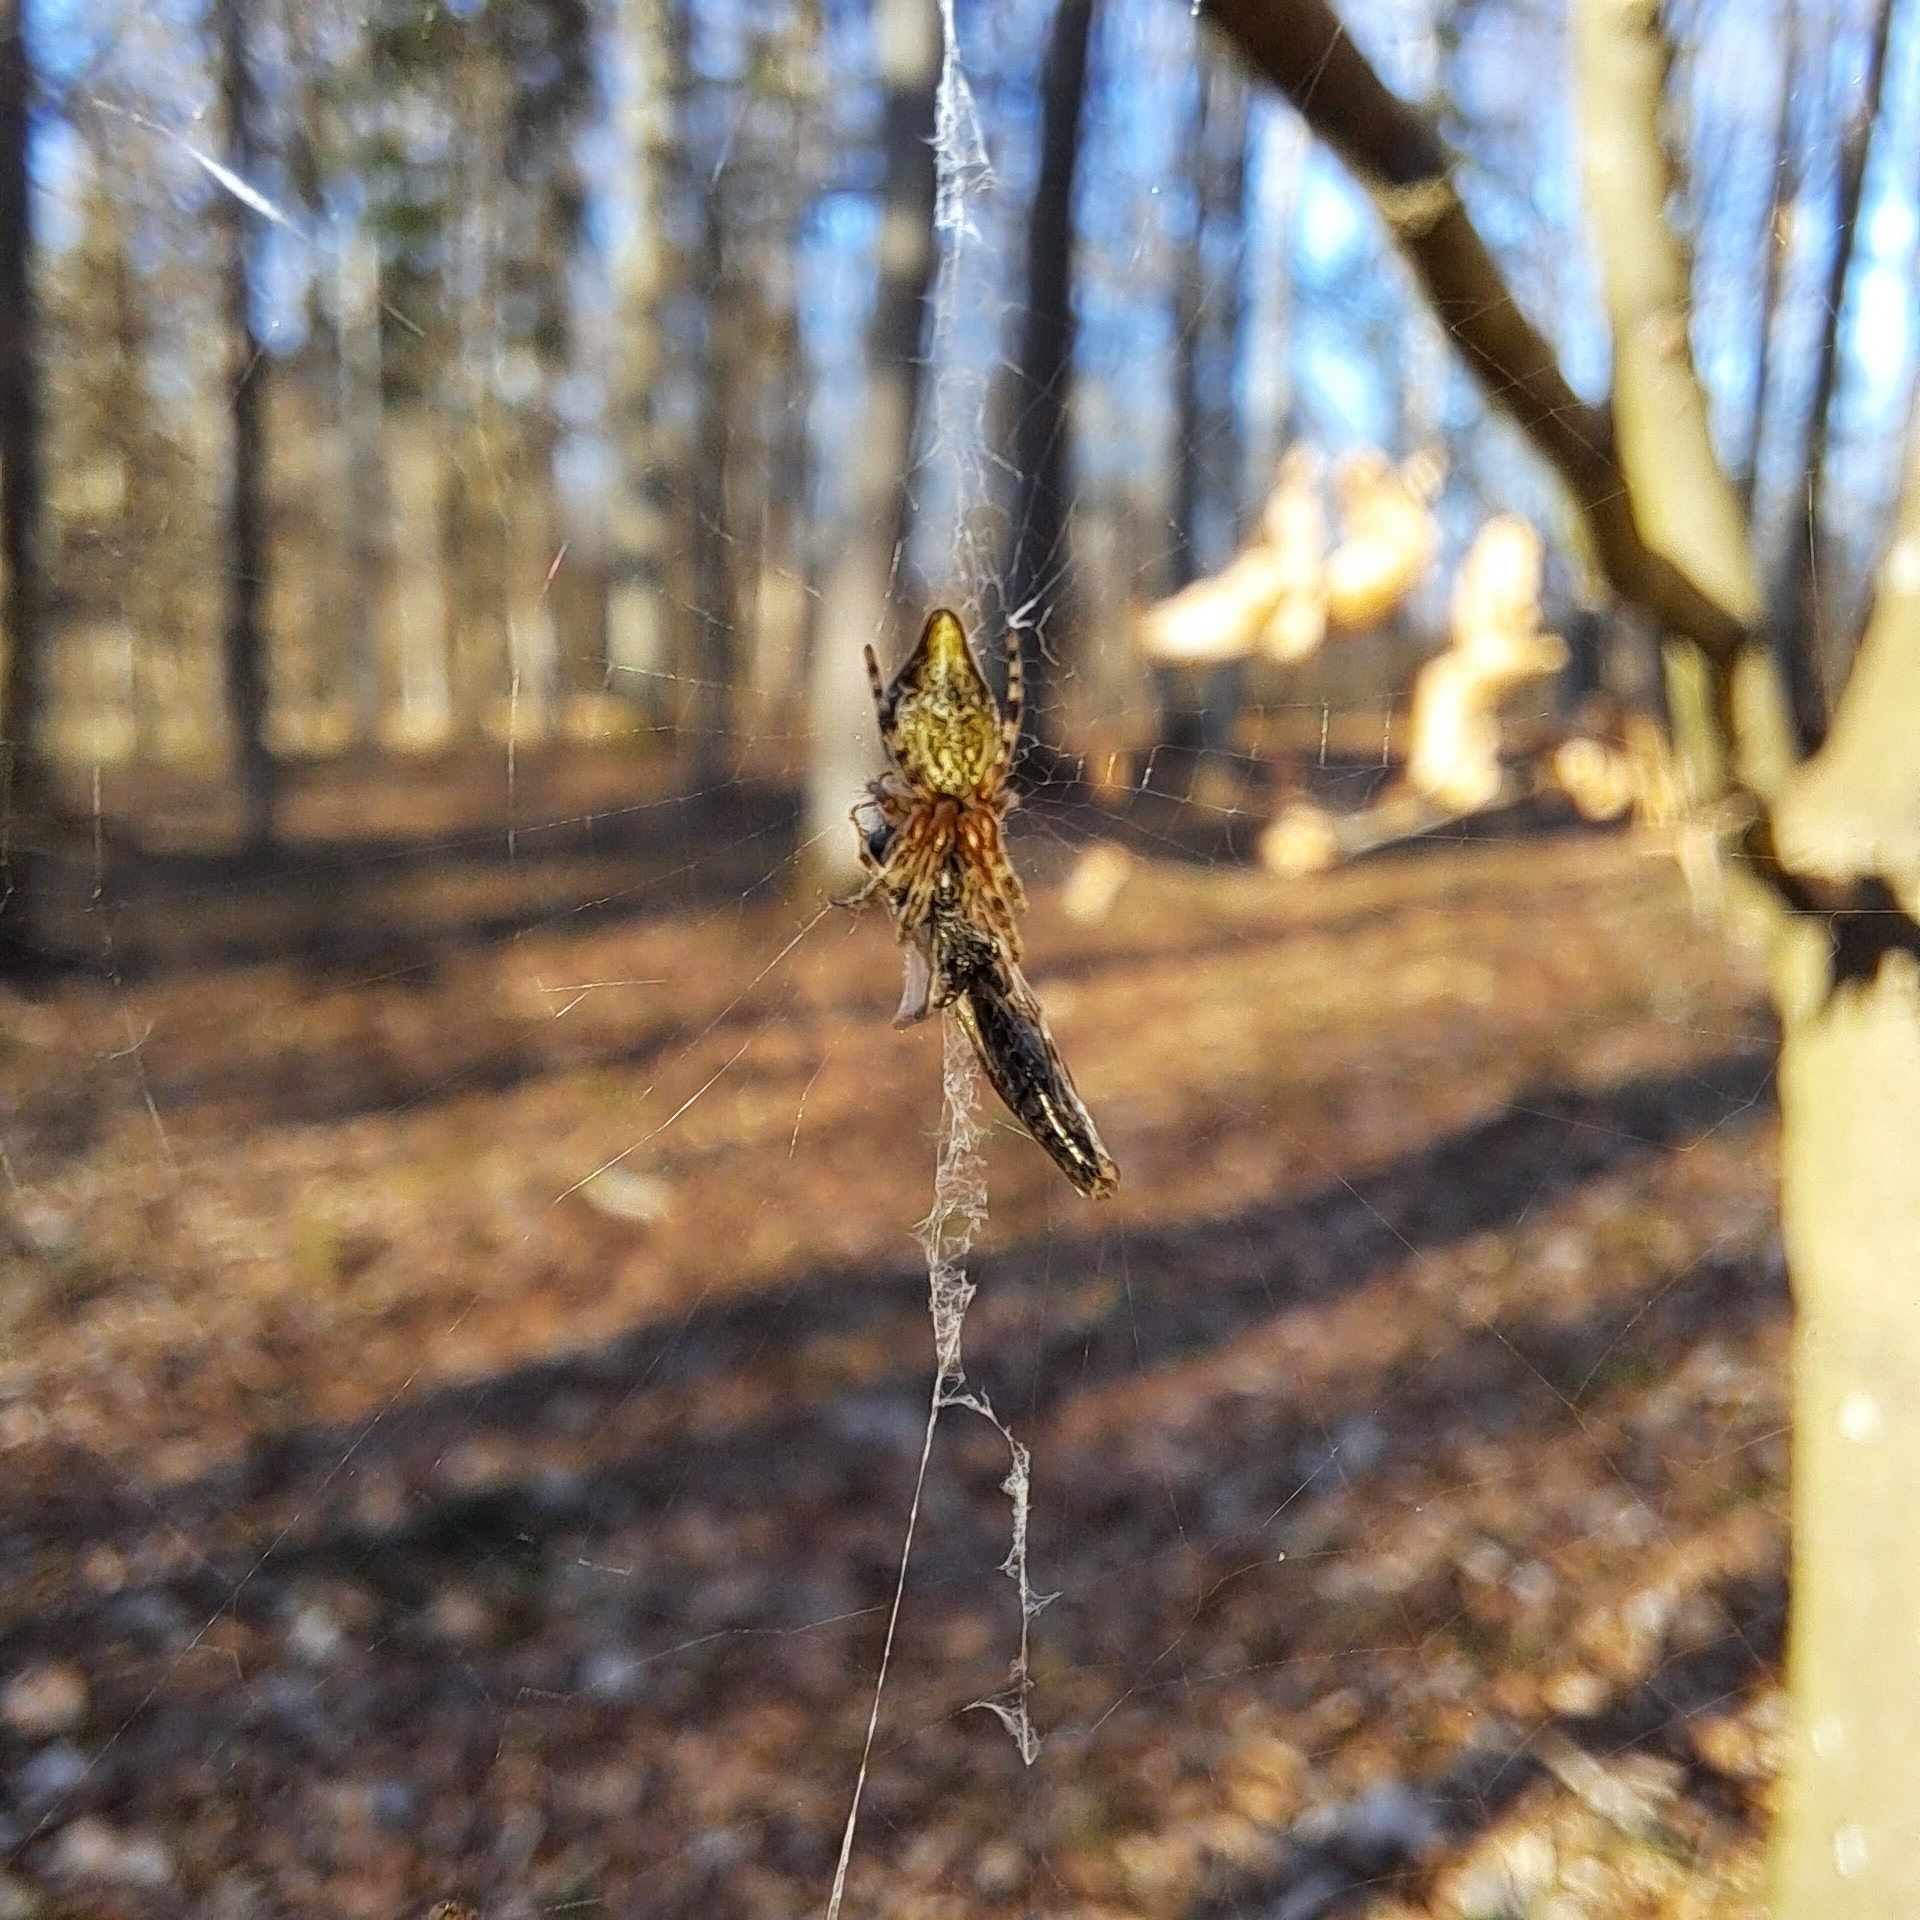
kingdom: Animalia
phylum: Arthropoda
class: Arachnida
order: Araneae
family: Araneidae
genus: Cyclosa
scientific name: Cyclosa conica
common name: Conical trashline orbweaver
